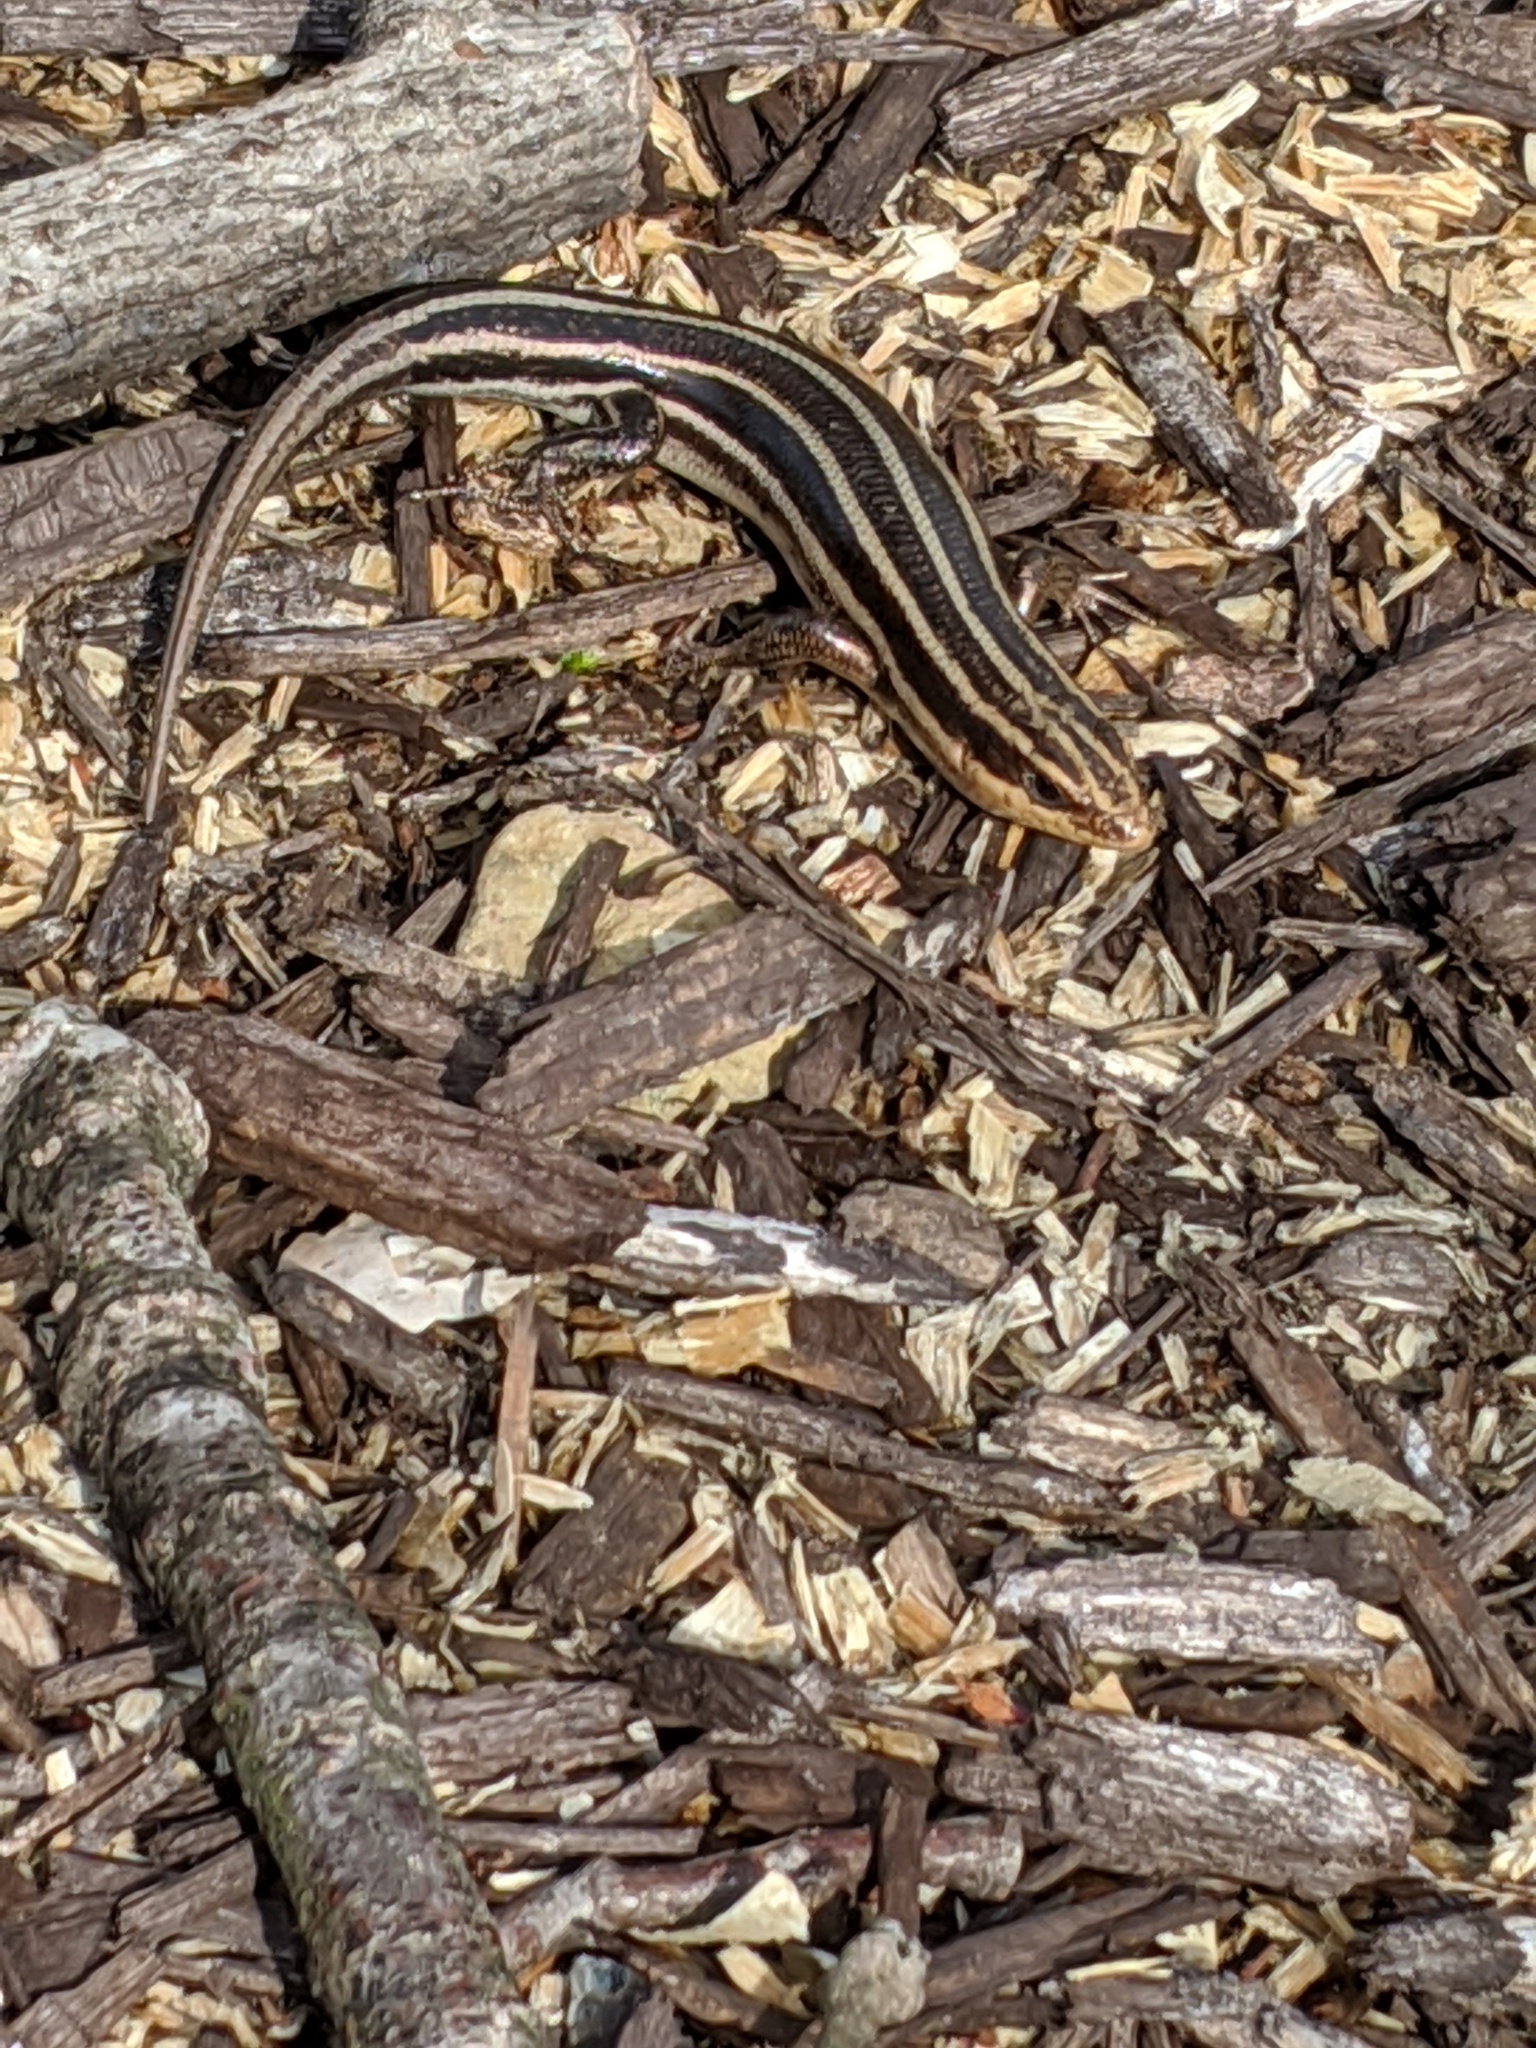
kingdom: Animalia
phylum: Chordata
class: Squamata
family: Scincidae
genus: Plestiodon
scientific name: Plestiodon fasciatus
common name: Five-lined skink
